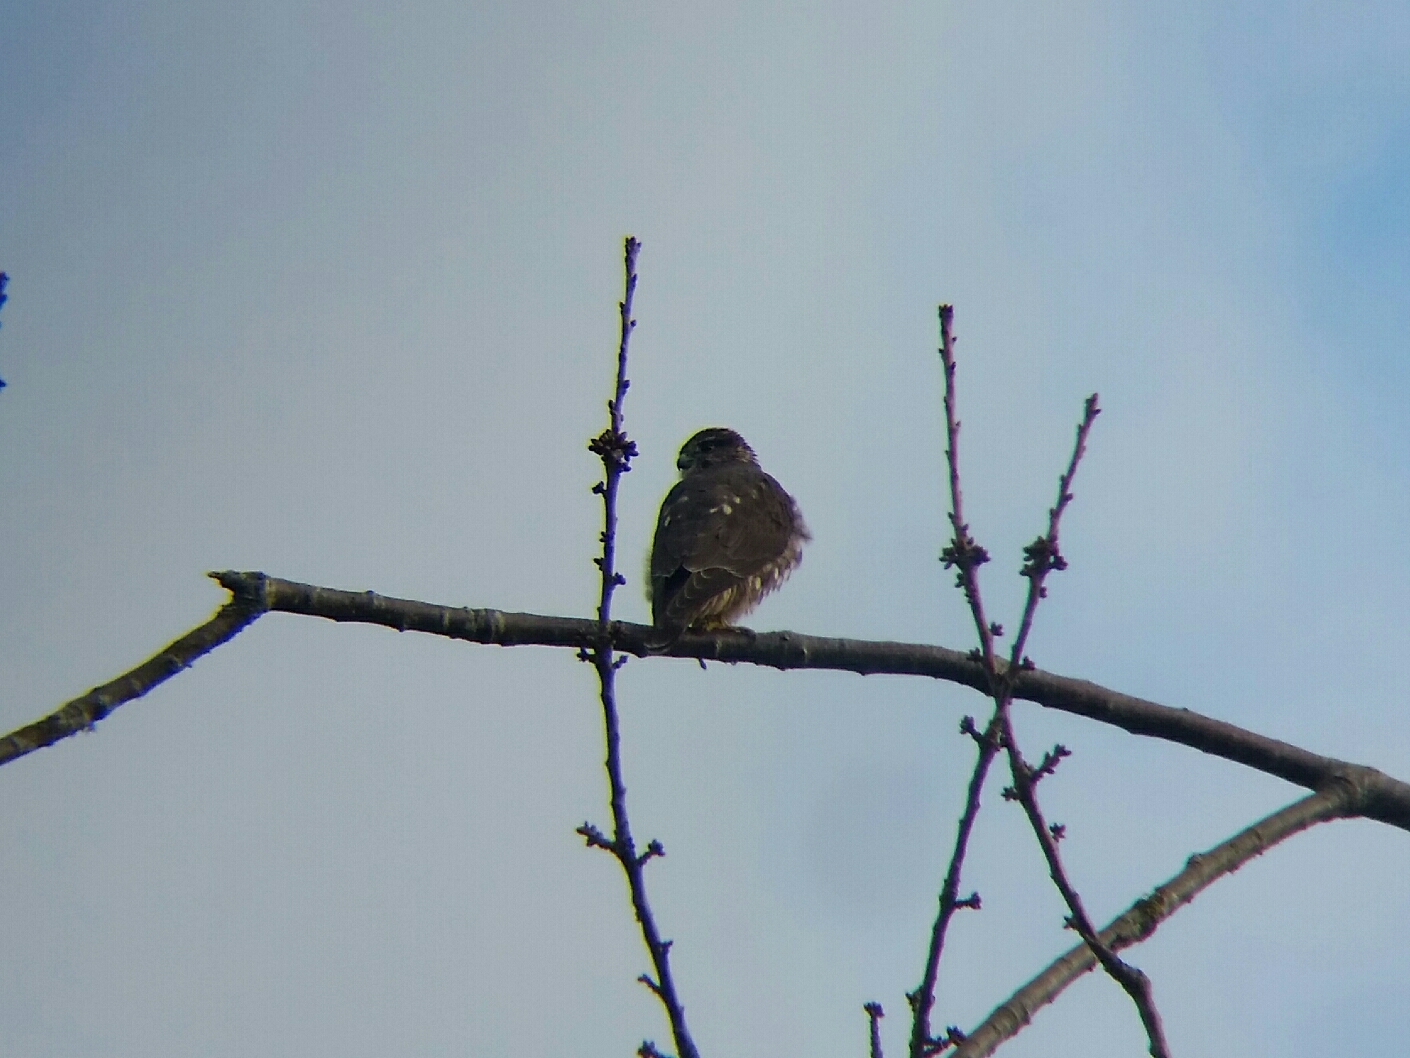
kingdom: Animalia
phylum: Chordata
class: Aves
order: Falconiformes
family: Falconidae
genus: Falco
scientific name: Falco columbarius
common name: Merlin
